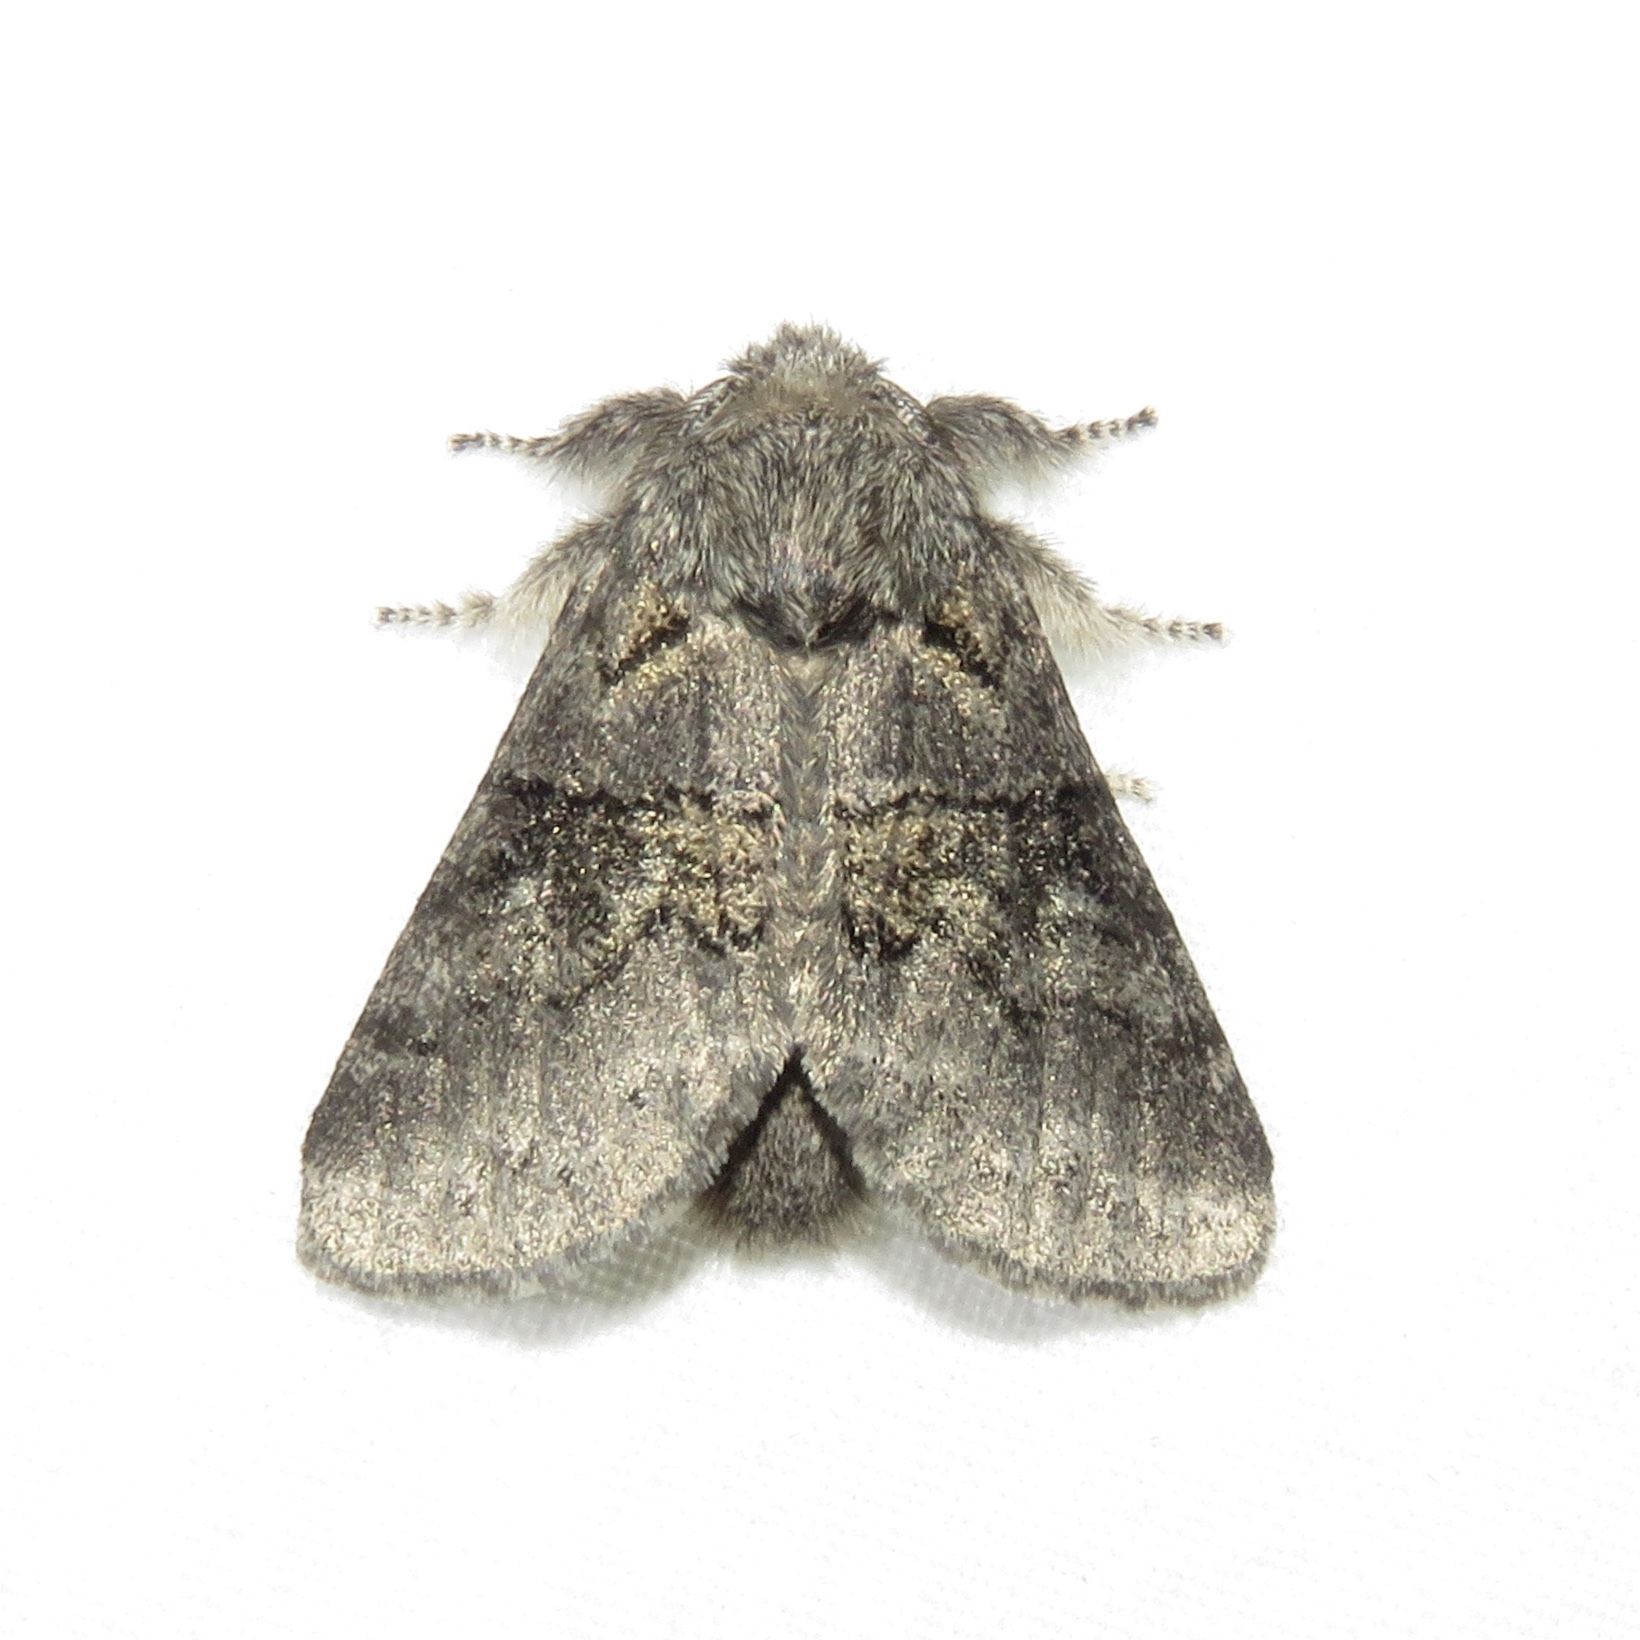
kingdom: Animalia
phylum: Arthropoda
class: Insecta
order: Lepidoptera
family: Notodontidae
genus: Gluphisia
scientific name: Gluphisia septentrionis
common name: Common gluphisia
